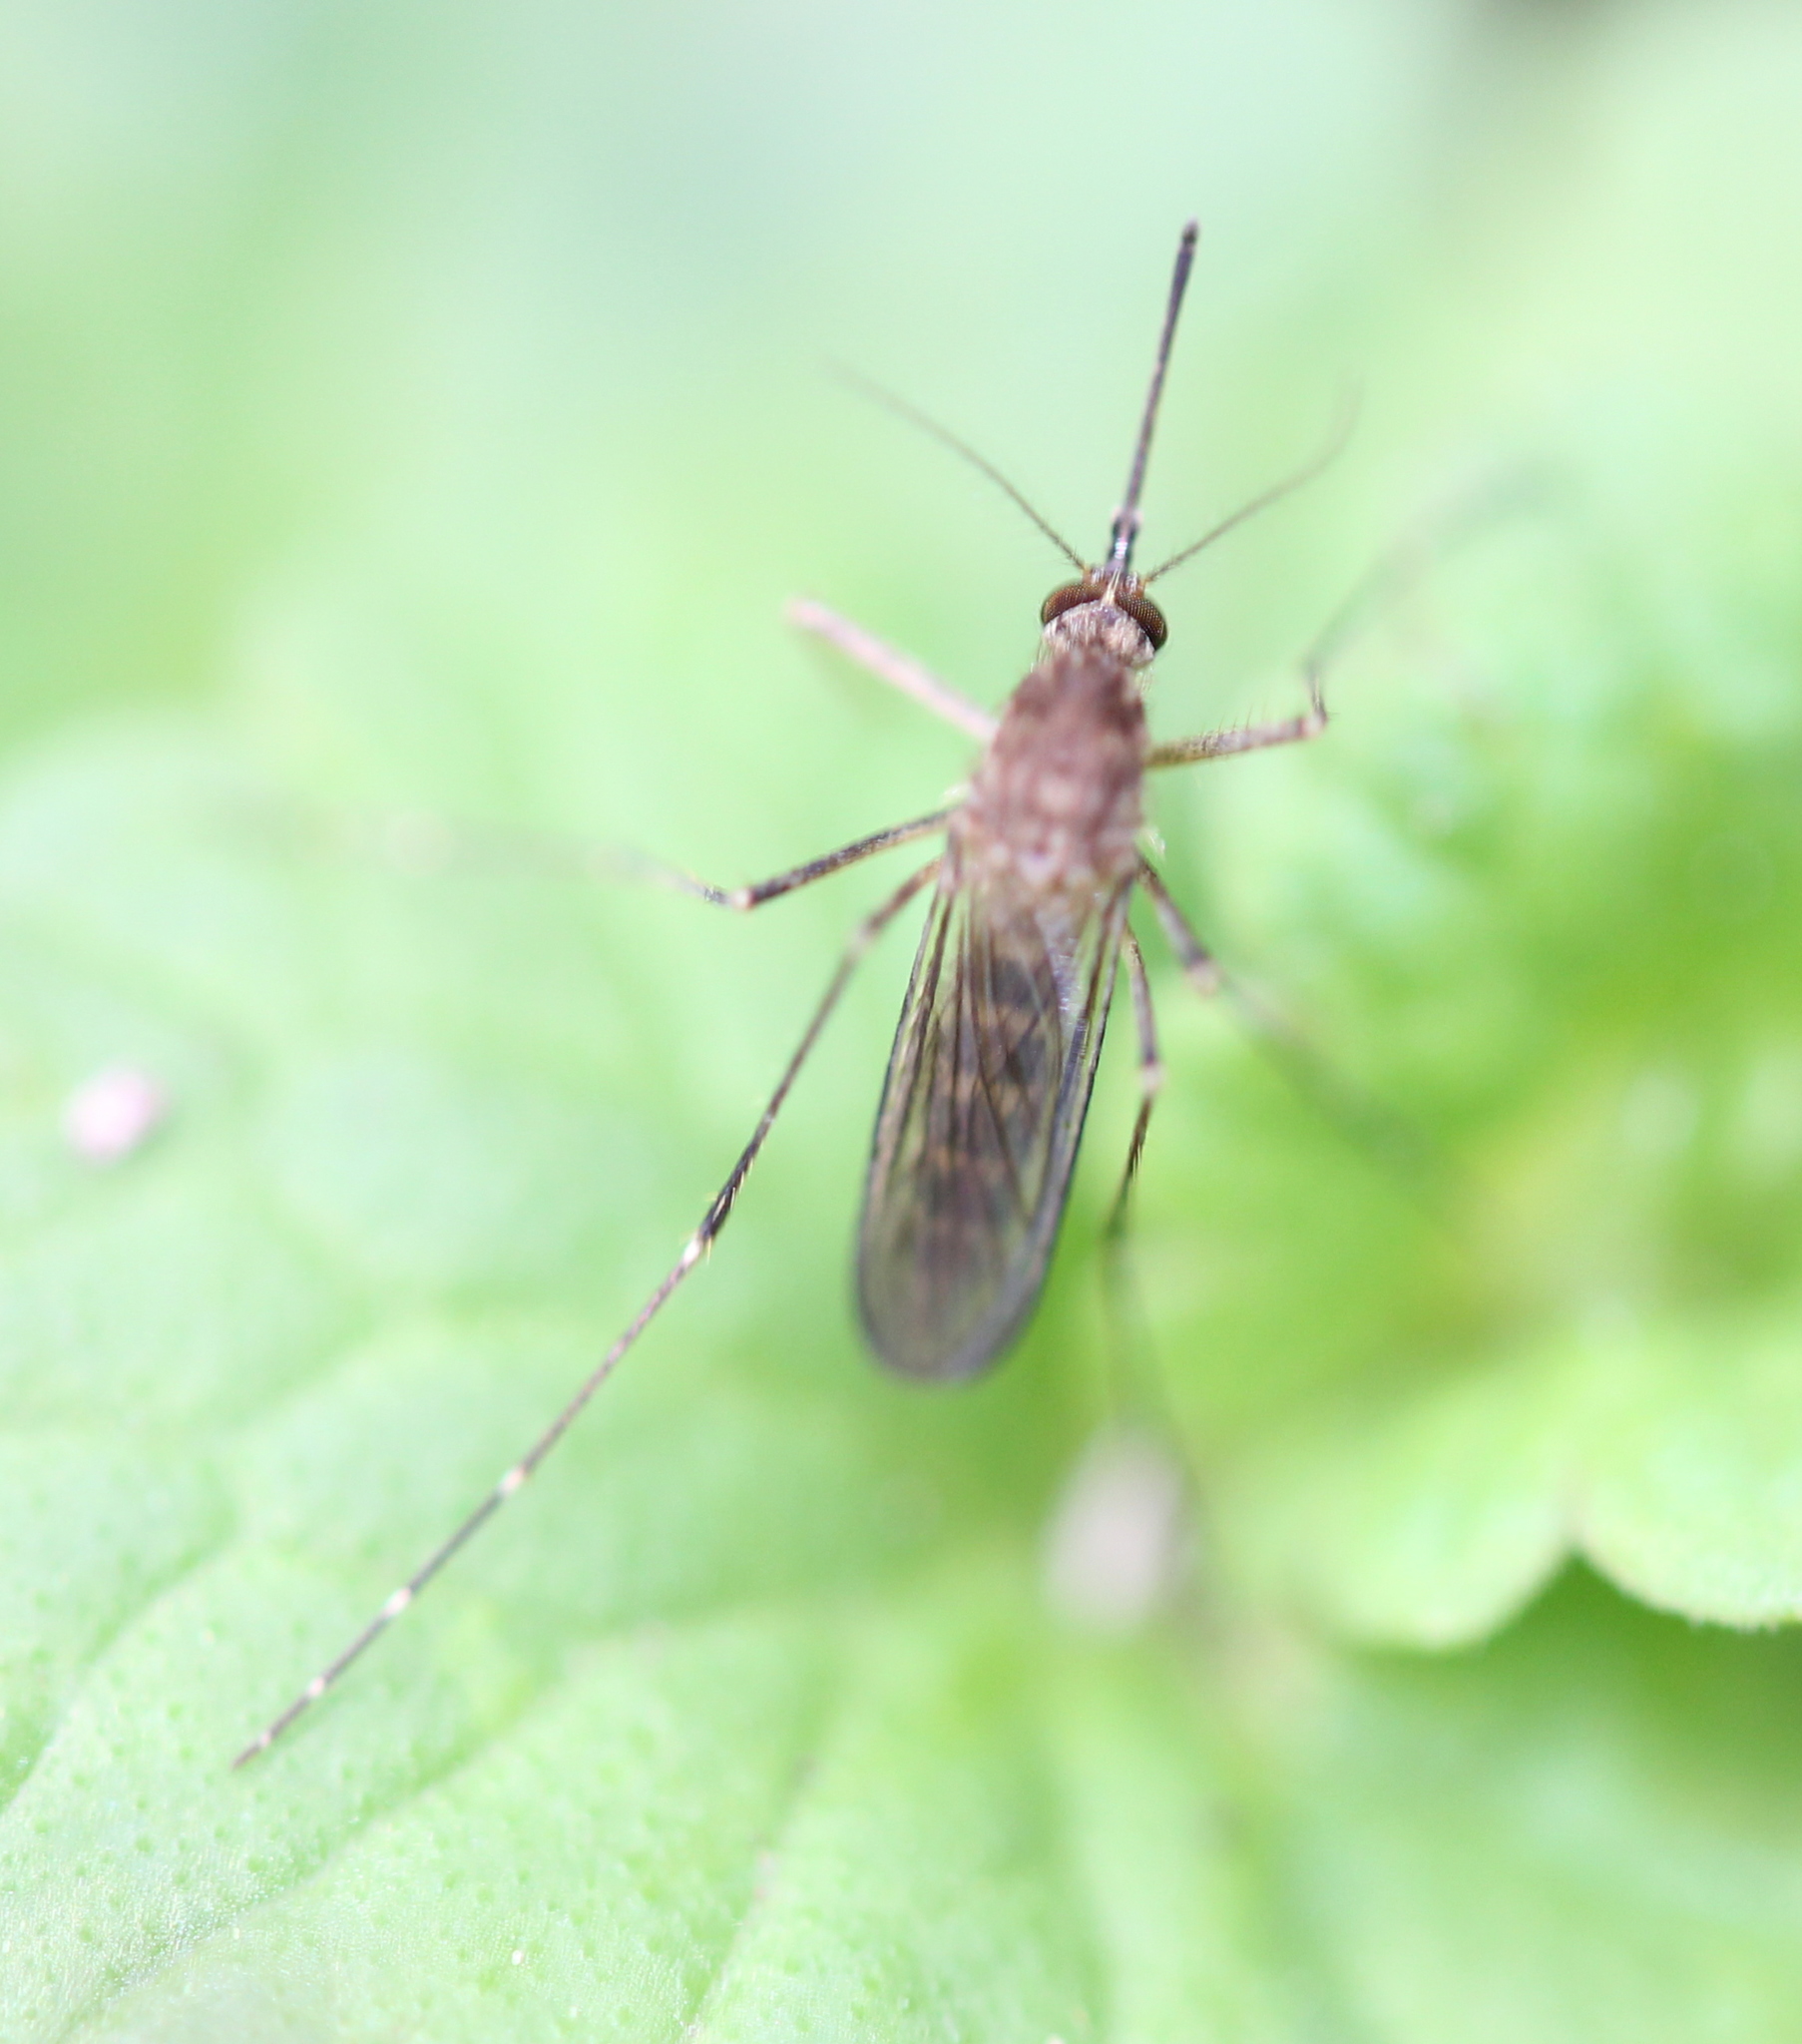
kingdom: Animalia
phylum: Arthropoda
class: Insecta
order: Diptera
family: Culicidae
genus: Aedes
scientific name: Aedes vexans
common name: Inland floodwater mosquito
